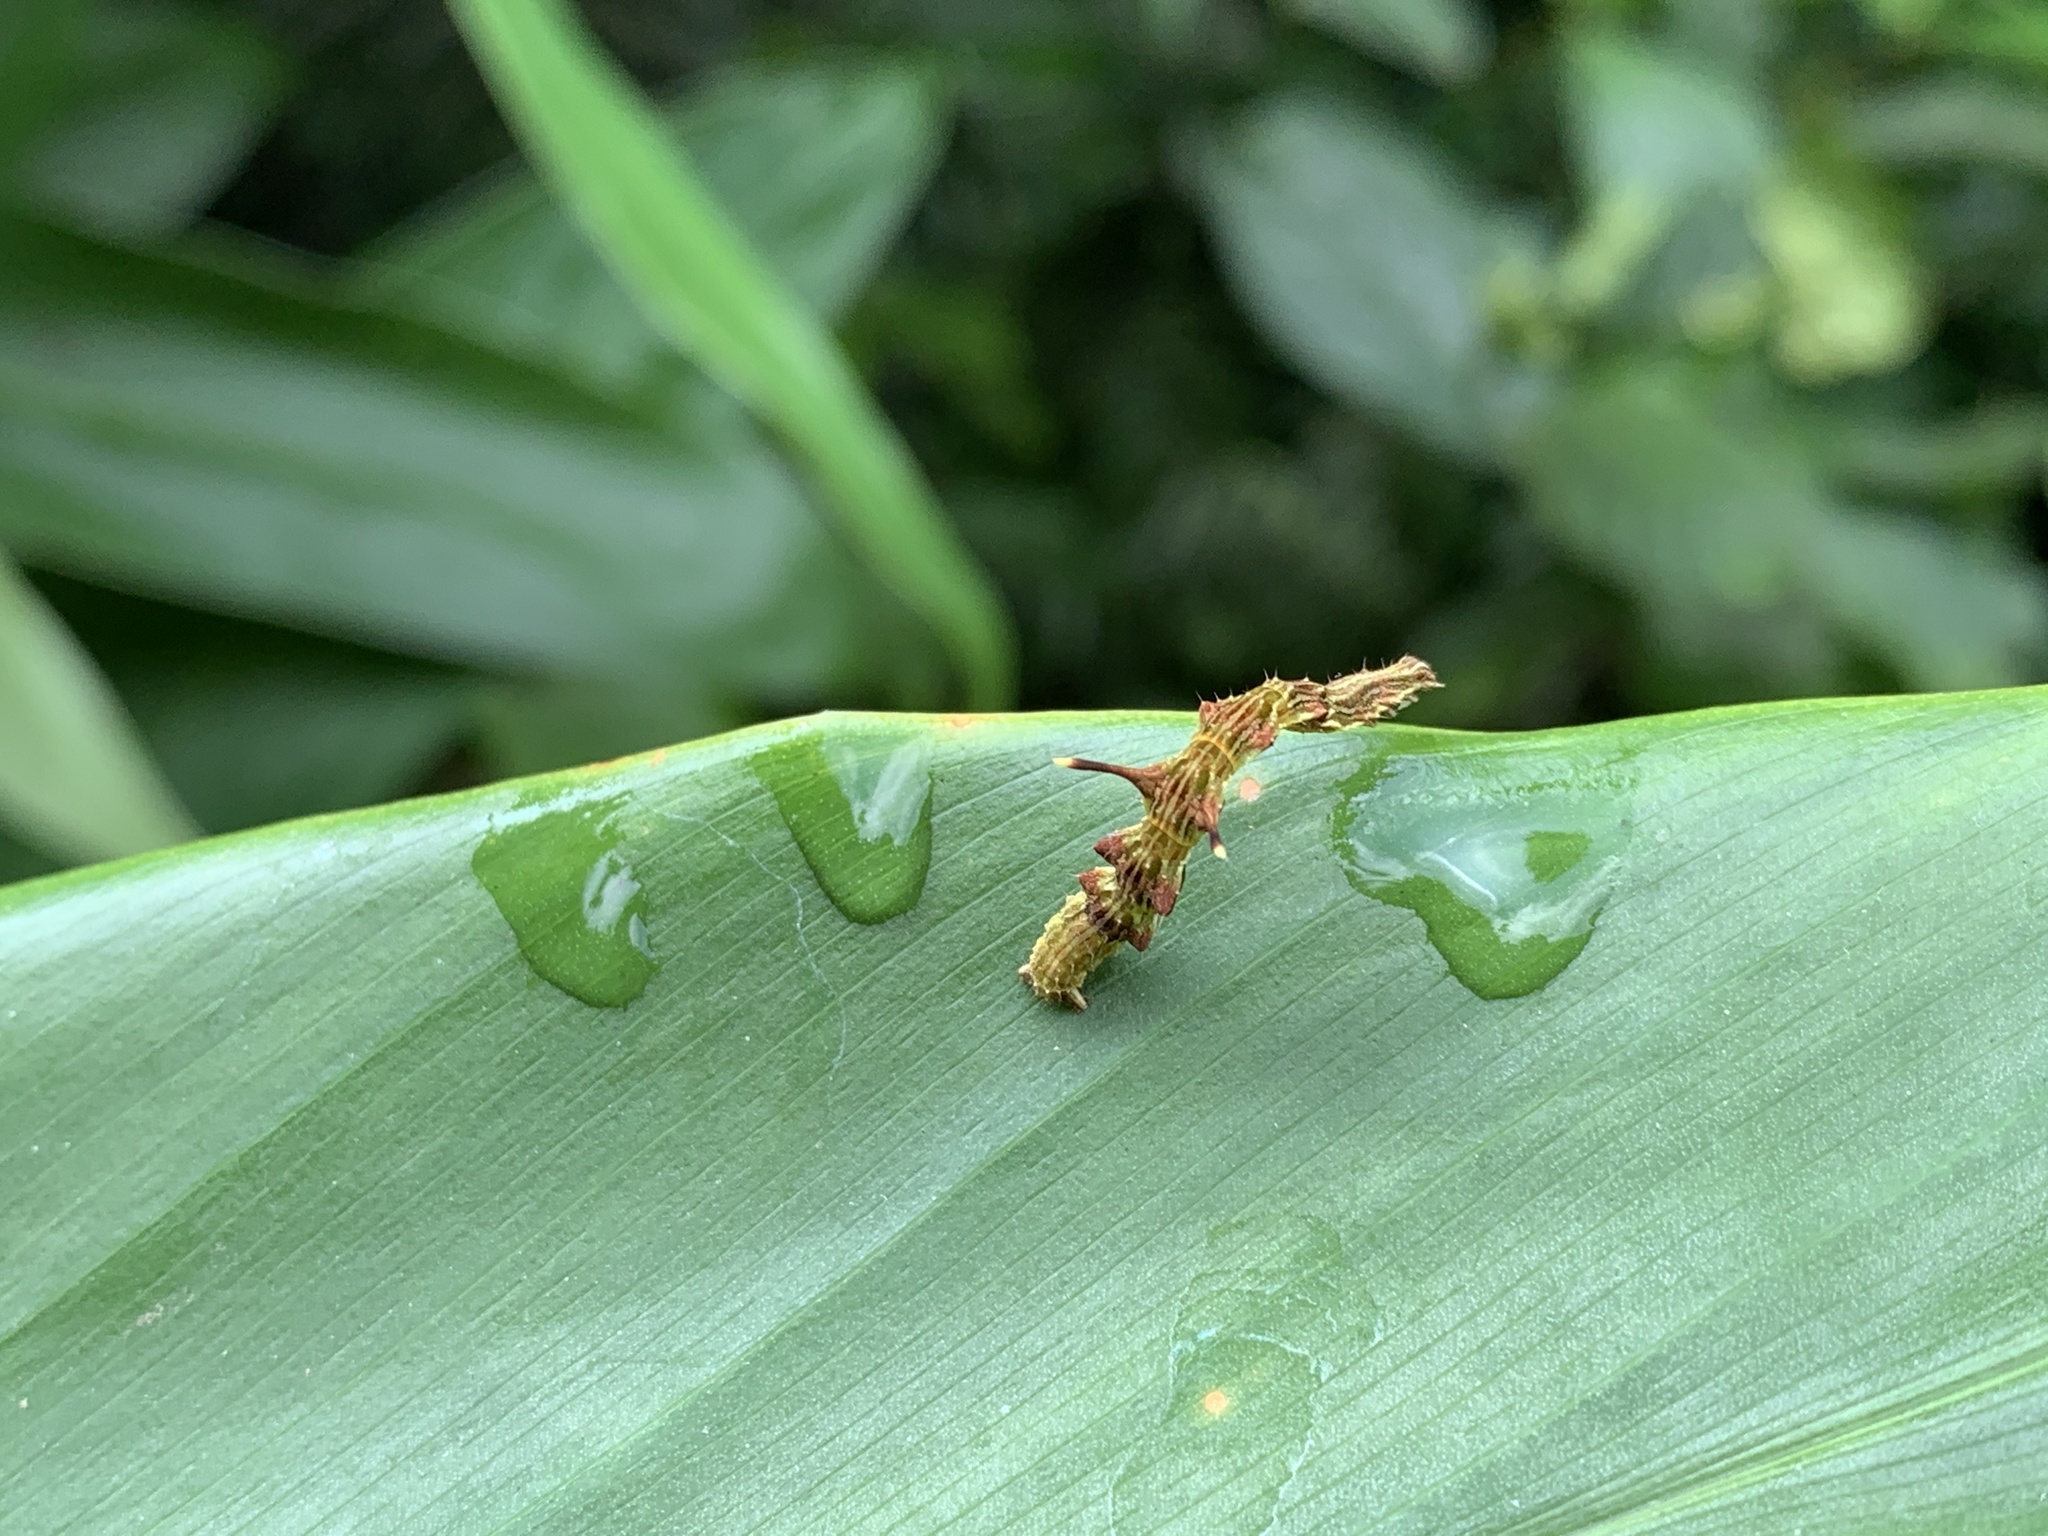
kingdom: Animalia
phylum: Arthropoda
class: Insecta
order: Lepidoptera
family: Geometridae
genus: Traminda
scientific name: Traminda aventiaria
